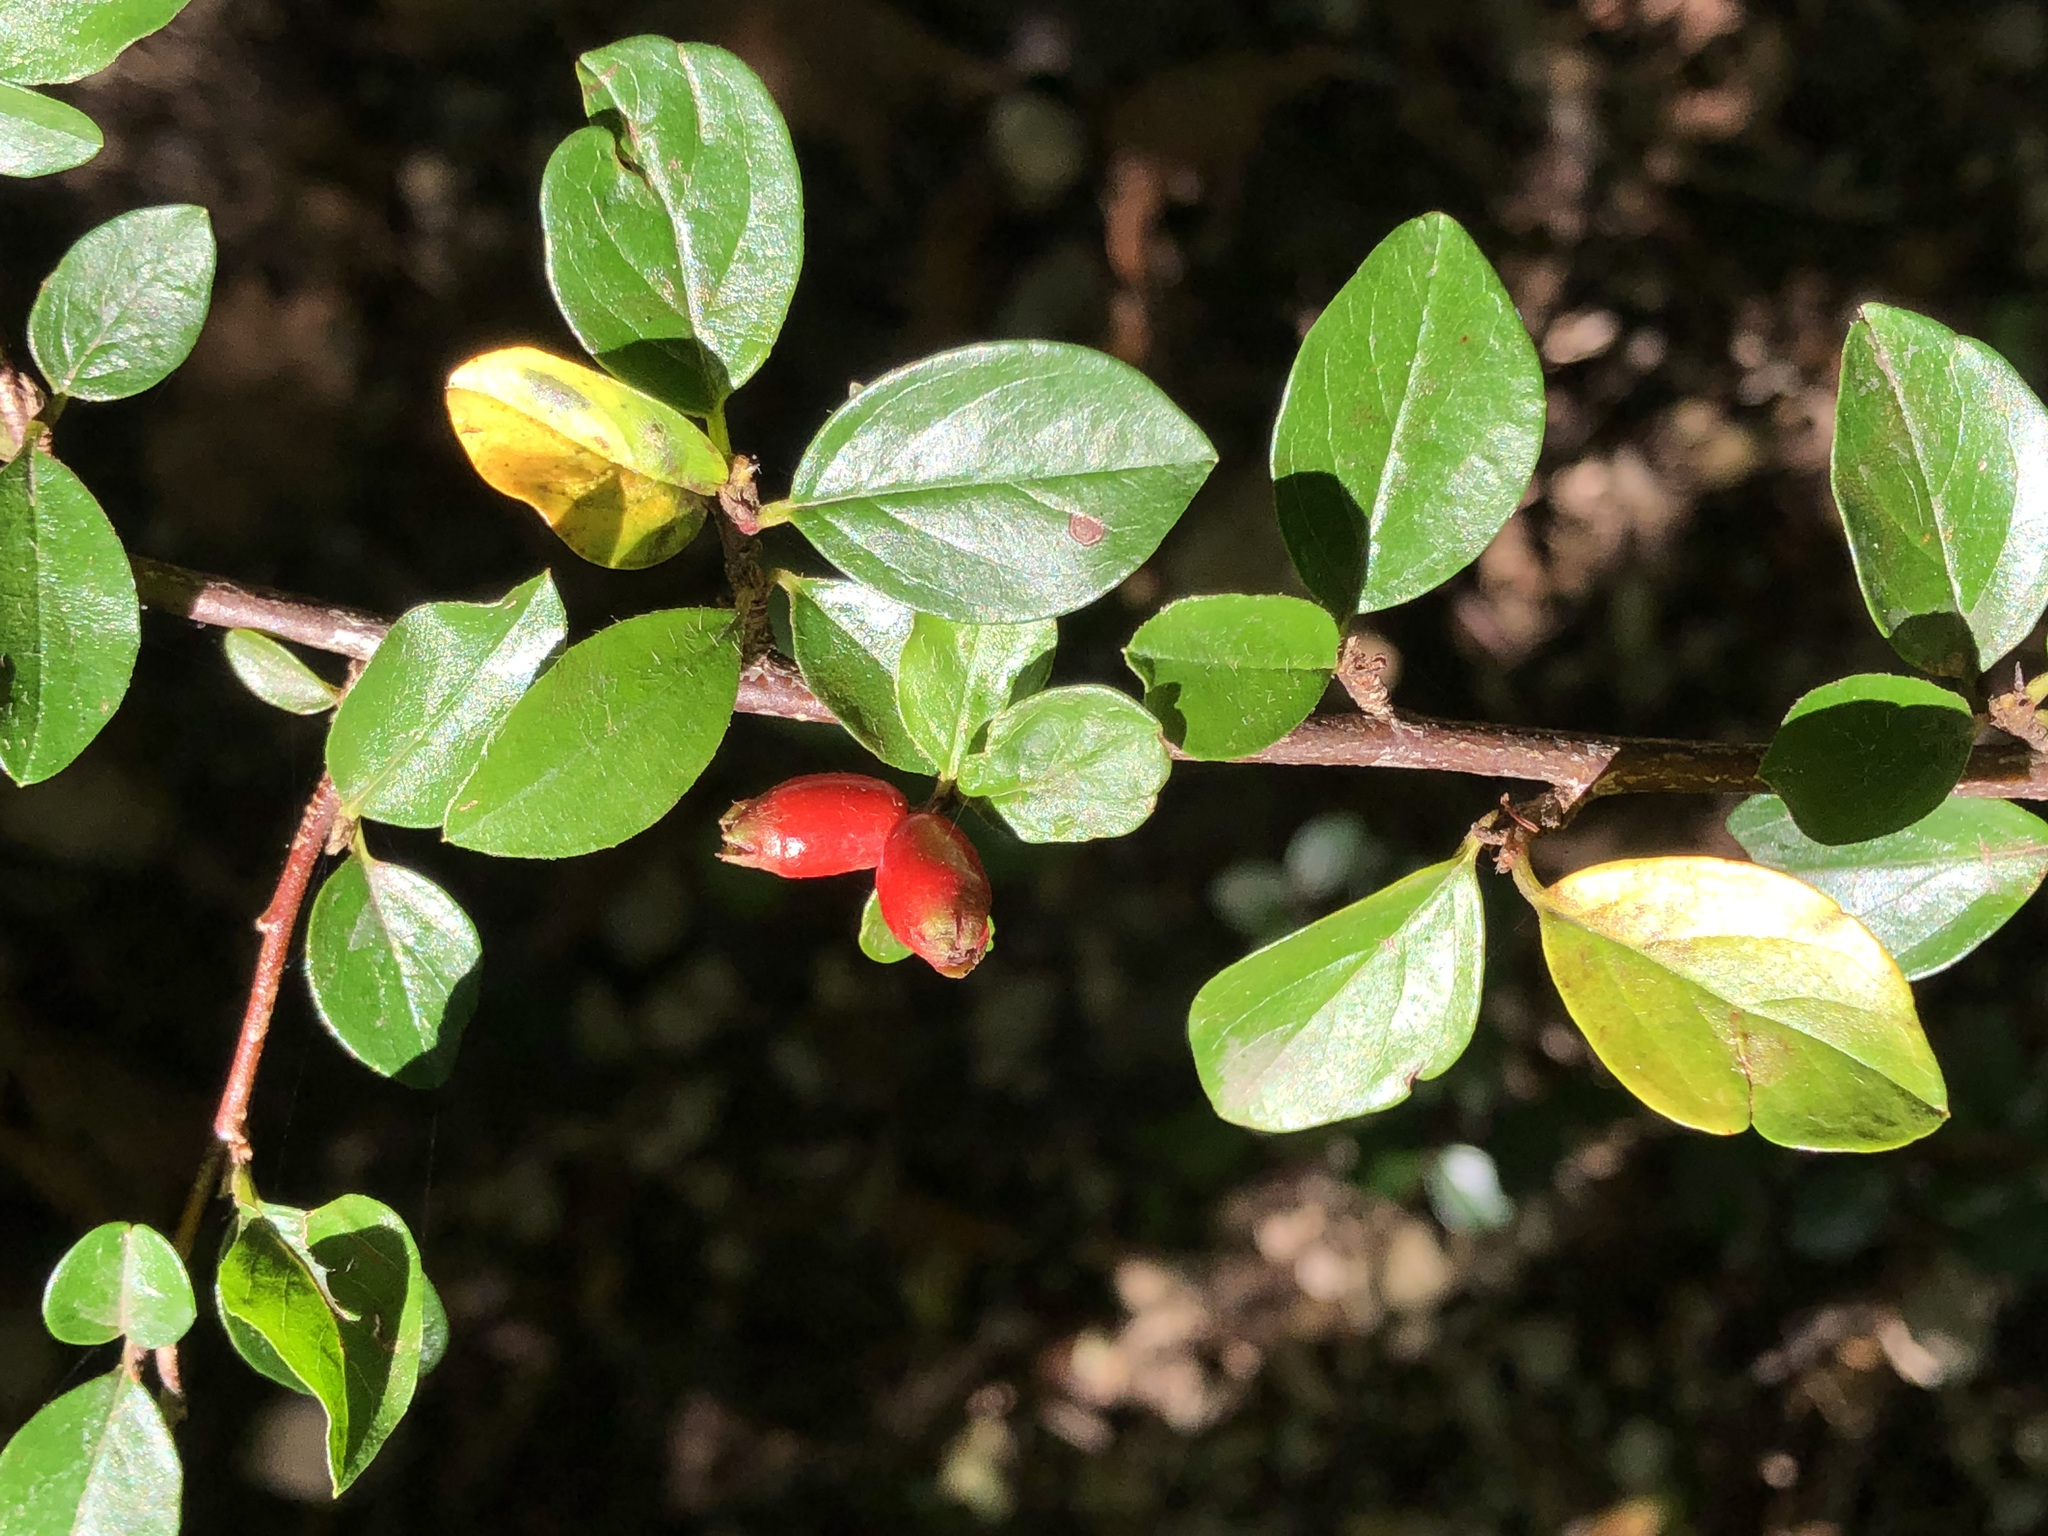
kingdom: Plantae
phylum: Tracheophyta
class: Magnoliopsida
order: Rosales
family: Rosaceae
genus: Cotoneaster
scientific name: Cotoneaster divaricatus
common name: Spreading cotoneaster
